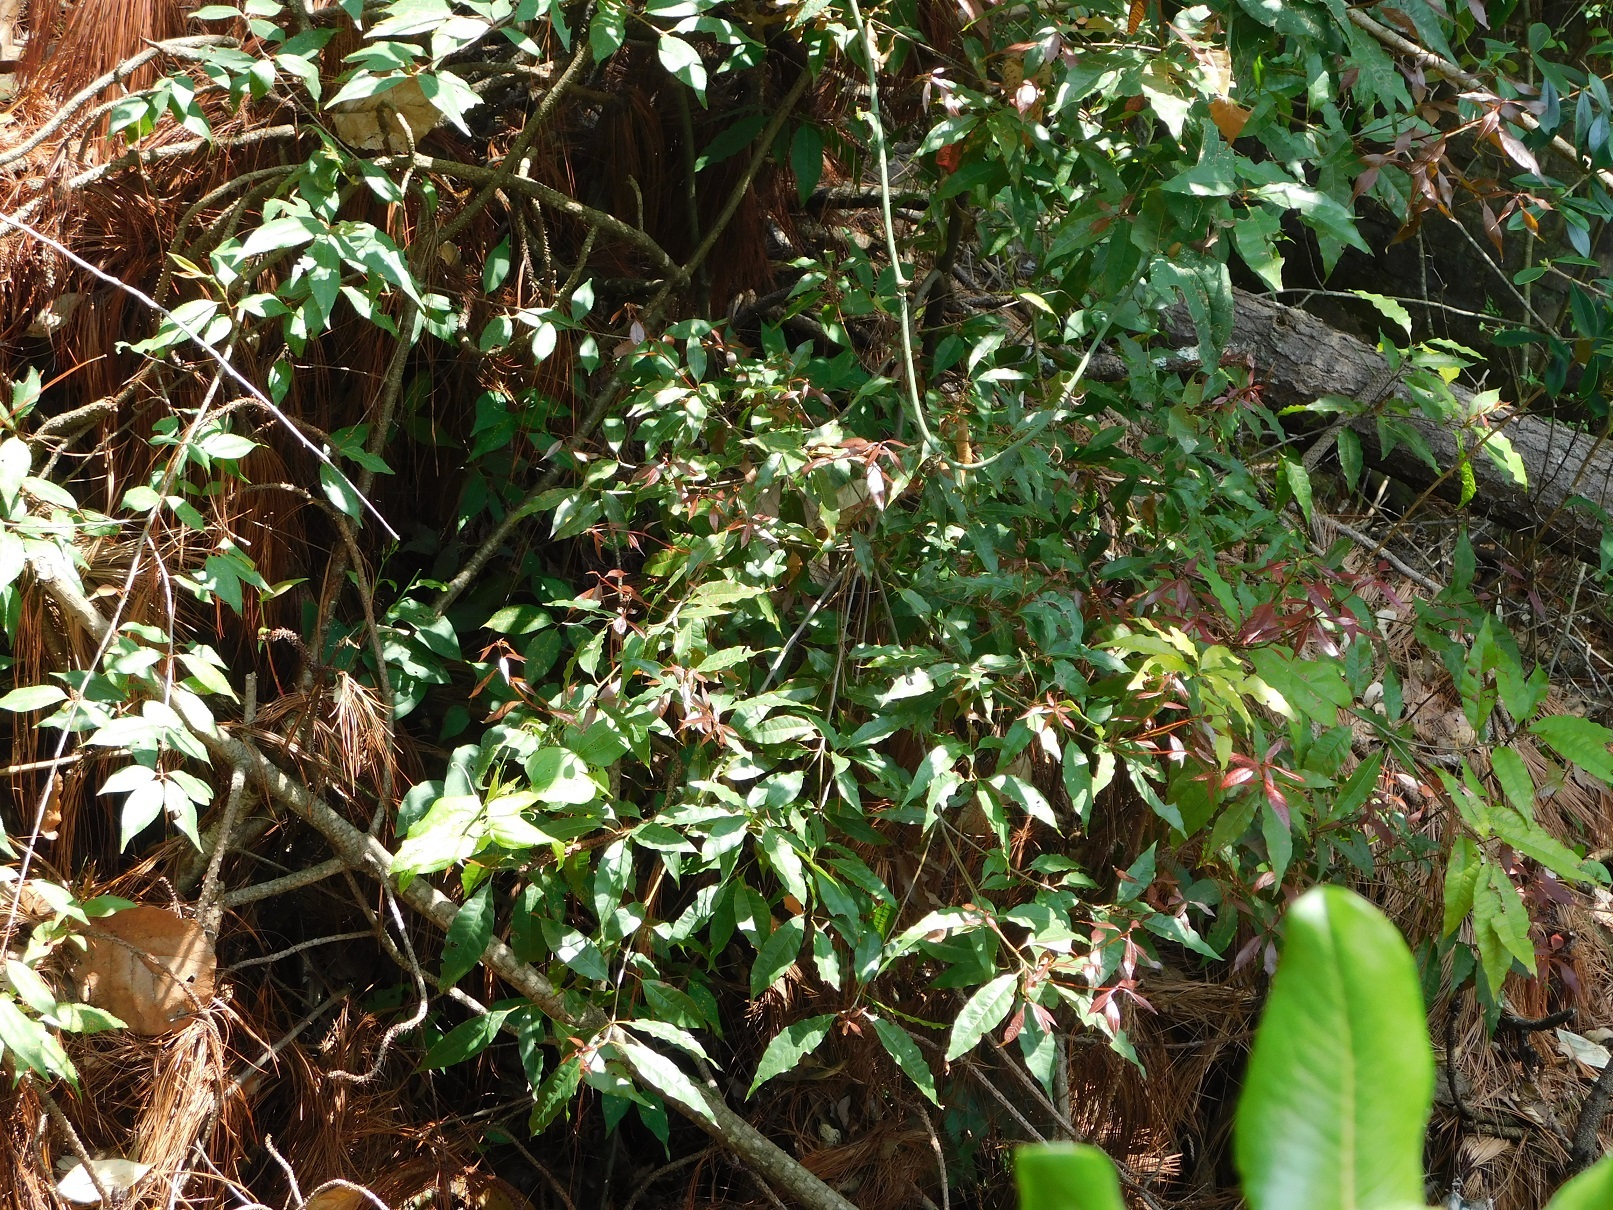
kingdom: Plantae
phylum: Tracheophyta
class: Magnoliopsida
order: Fagales
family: Fagaceae
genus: Quercus
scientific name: Quercus seemannii
